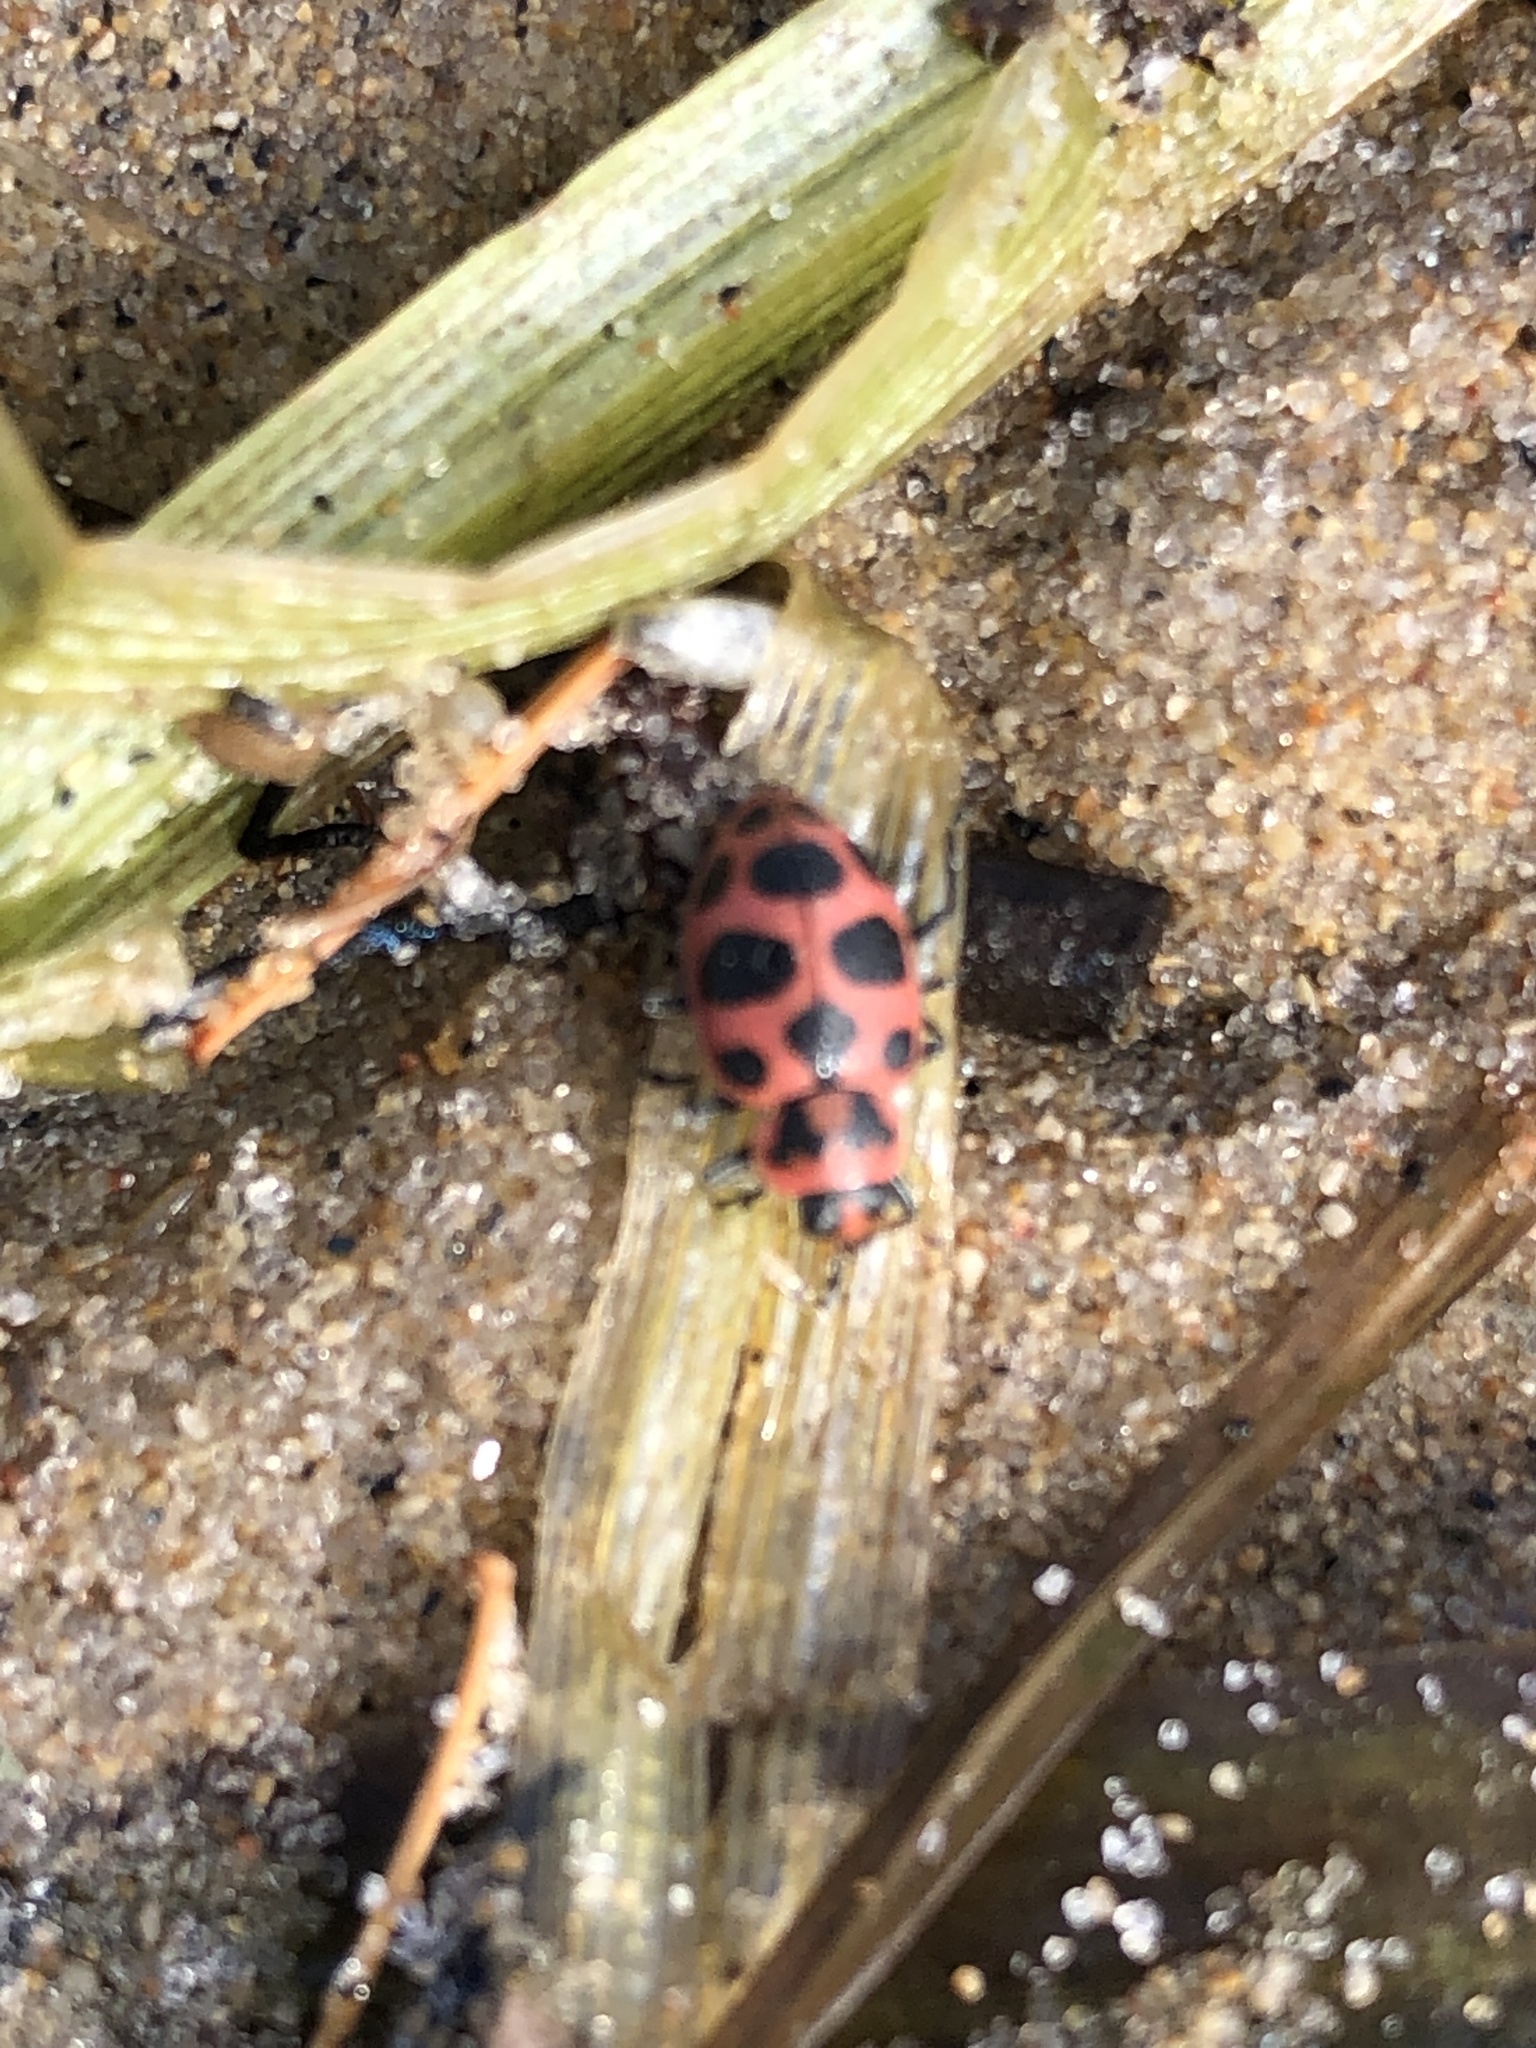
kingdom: Animalia
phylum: Arthropoda
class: Insecta
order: Coleoptera
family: Coccinellidae
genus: Coleomegilla
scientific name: Coleomegilla maculata
